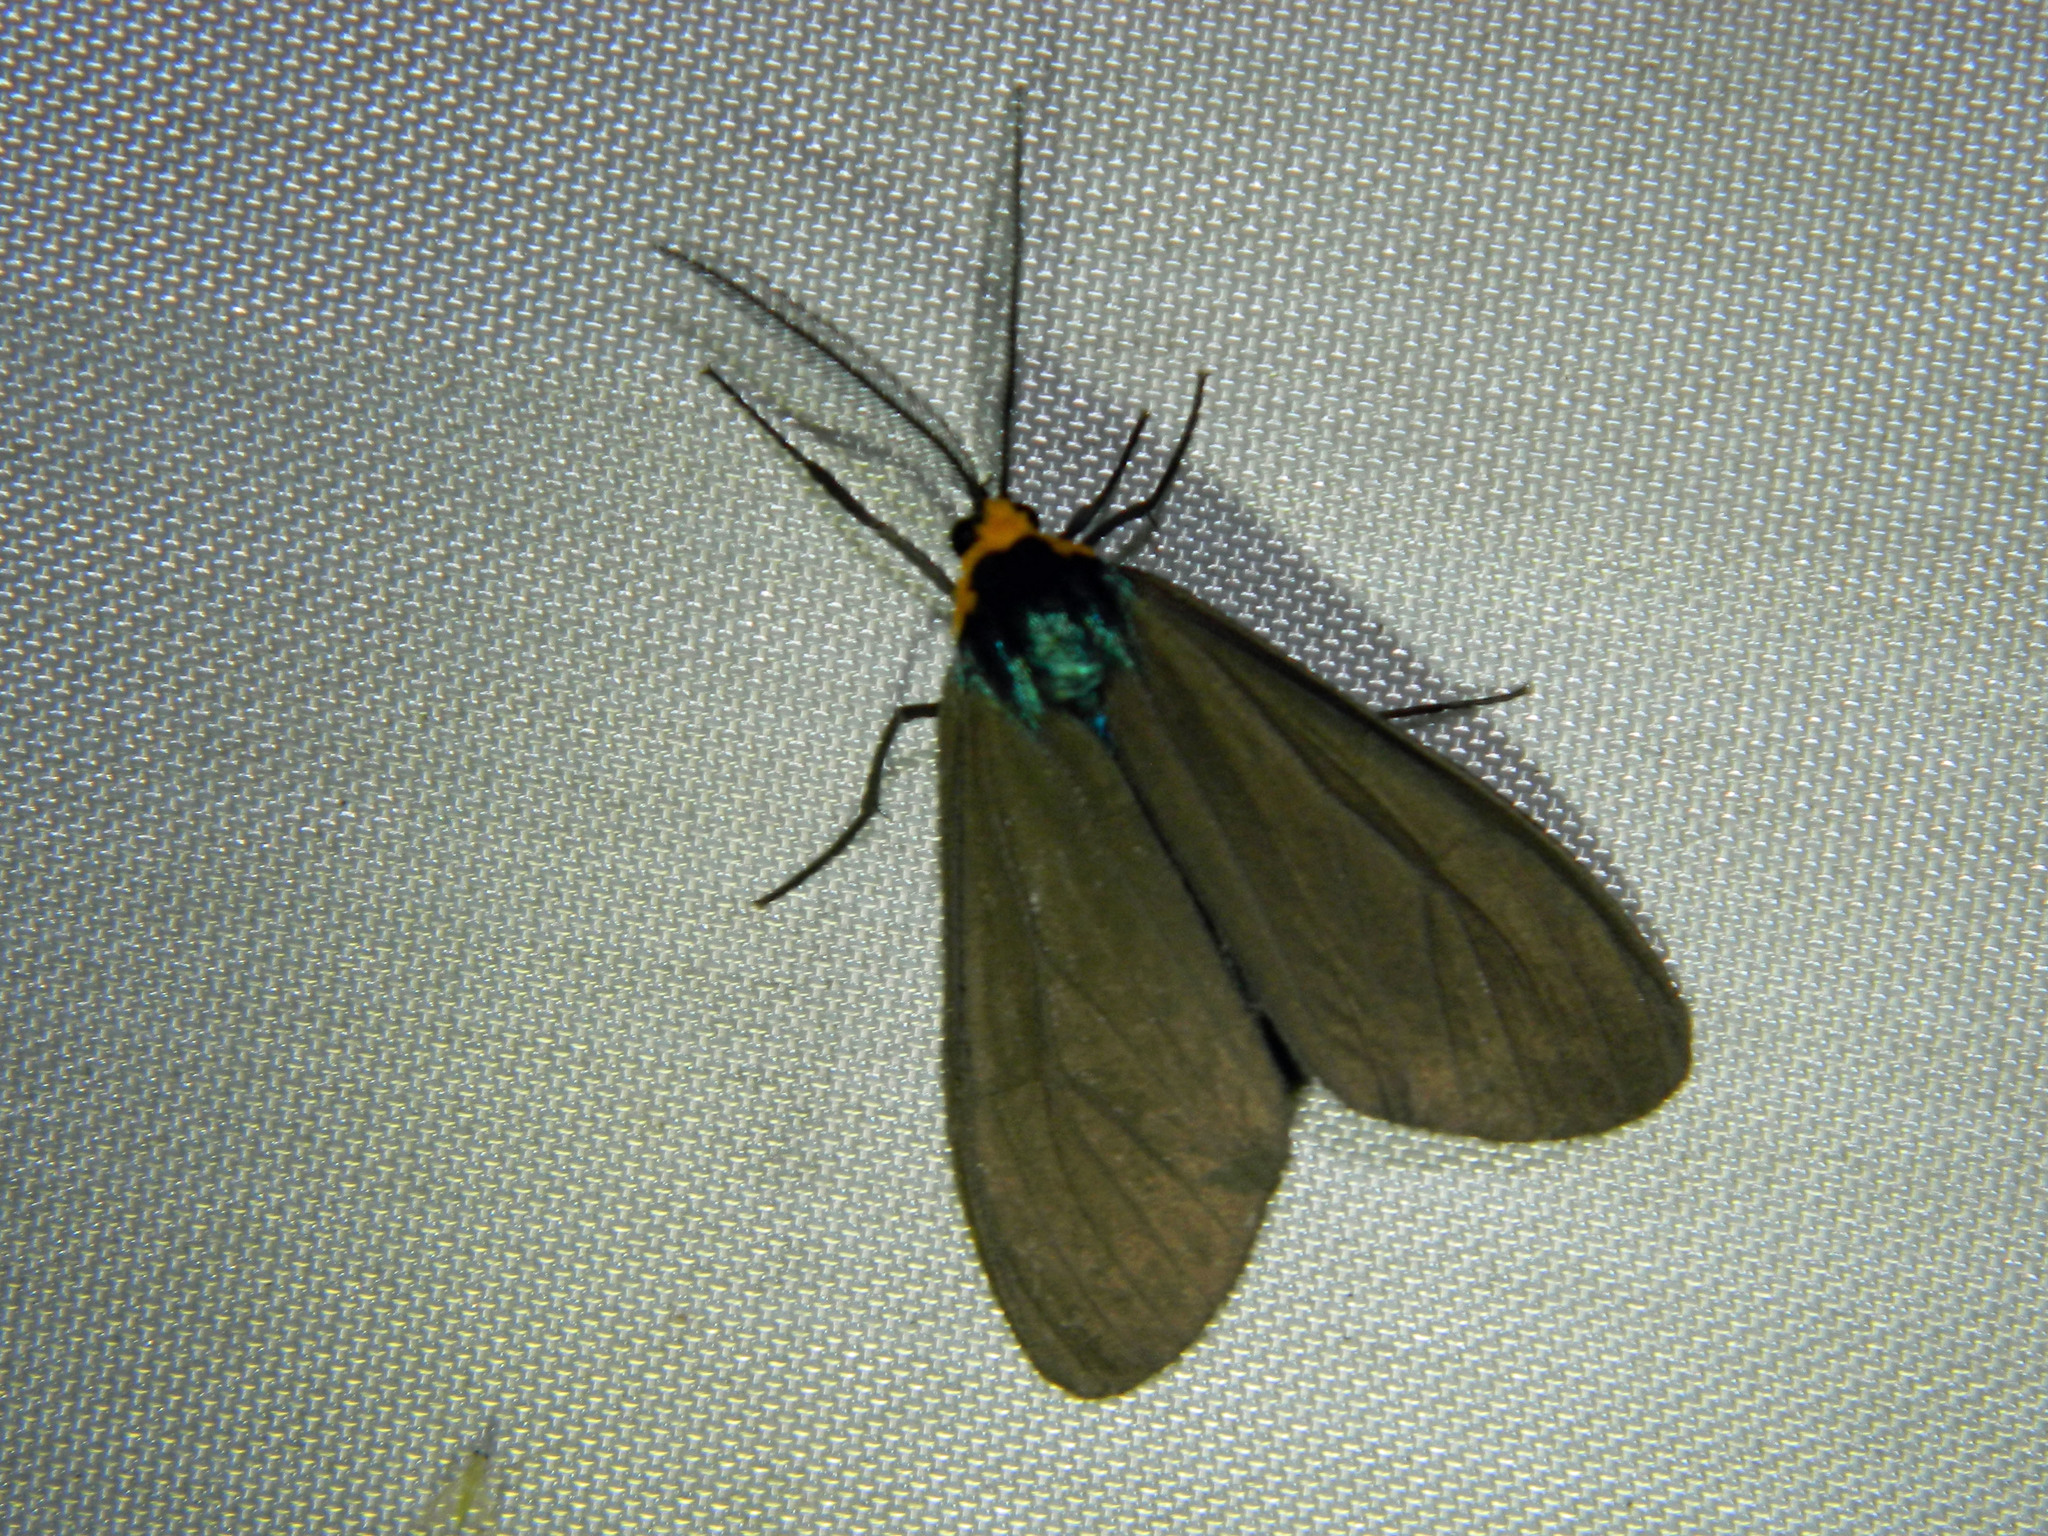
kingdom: Animalia
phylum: Arthropoda
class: Insecta
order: Lepidoptera
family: Erebidae
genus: Ctenucha
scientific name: Ctenucha virginica
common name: Virginia ctenucha moth
